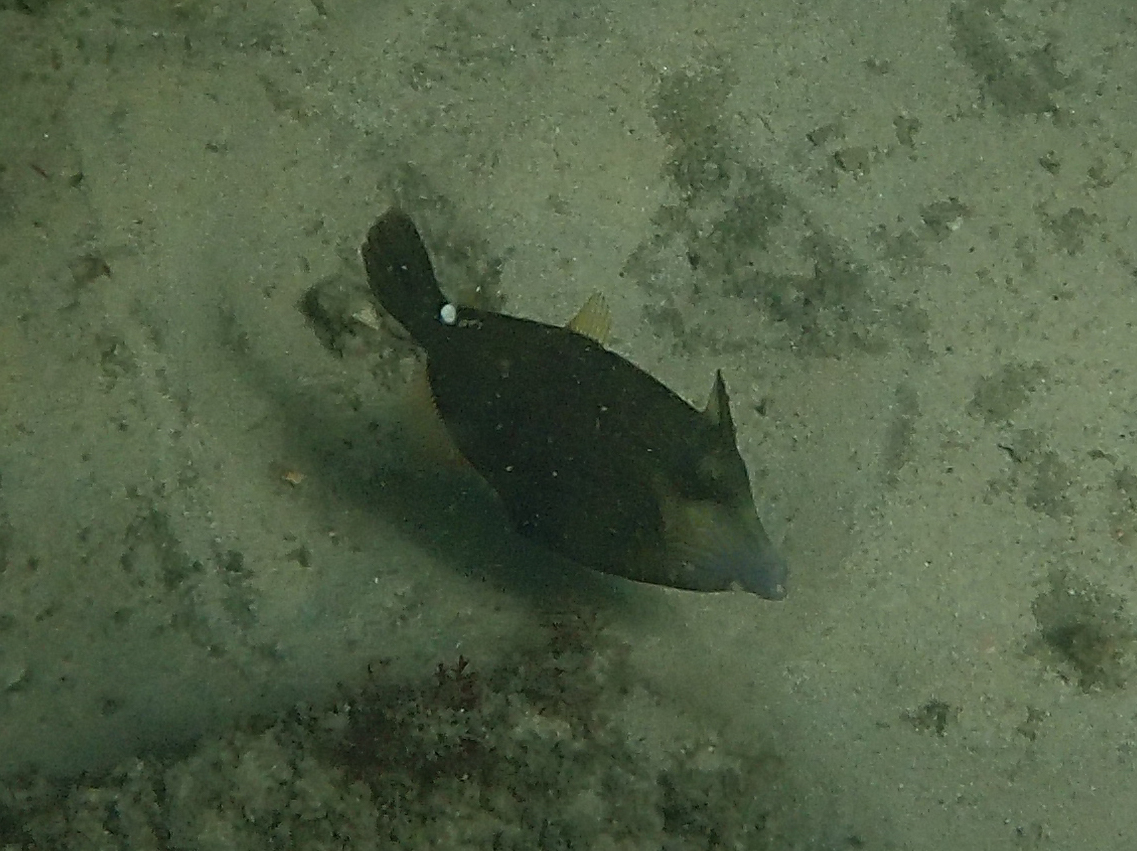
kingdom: Animalia
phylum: Chordata
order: Tetraodontiformes
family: Monacanthidae
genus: Cantherhines
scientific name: Cantherhines pardalis
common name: Honeycomb filefish
